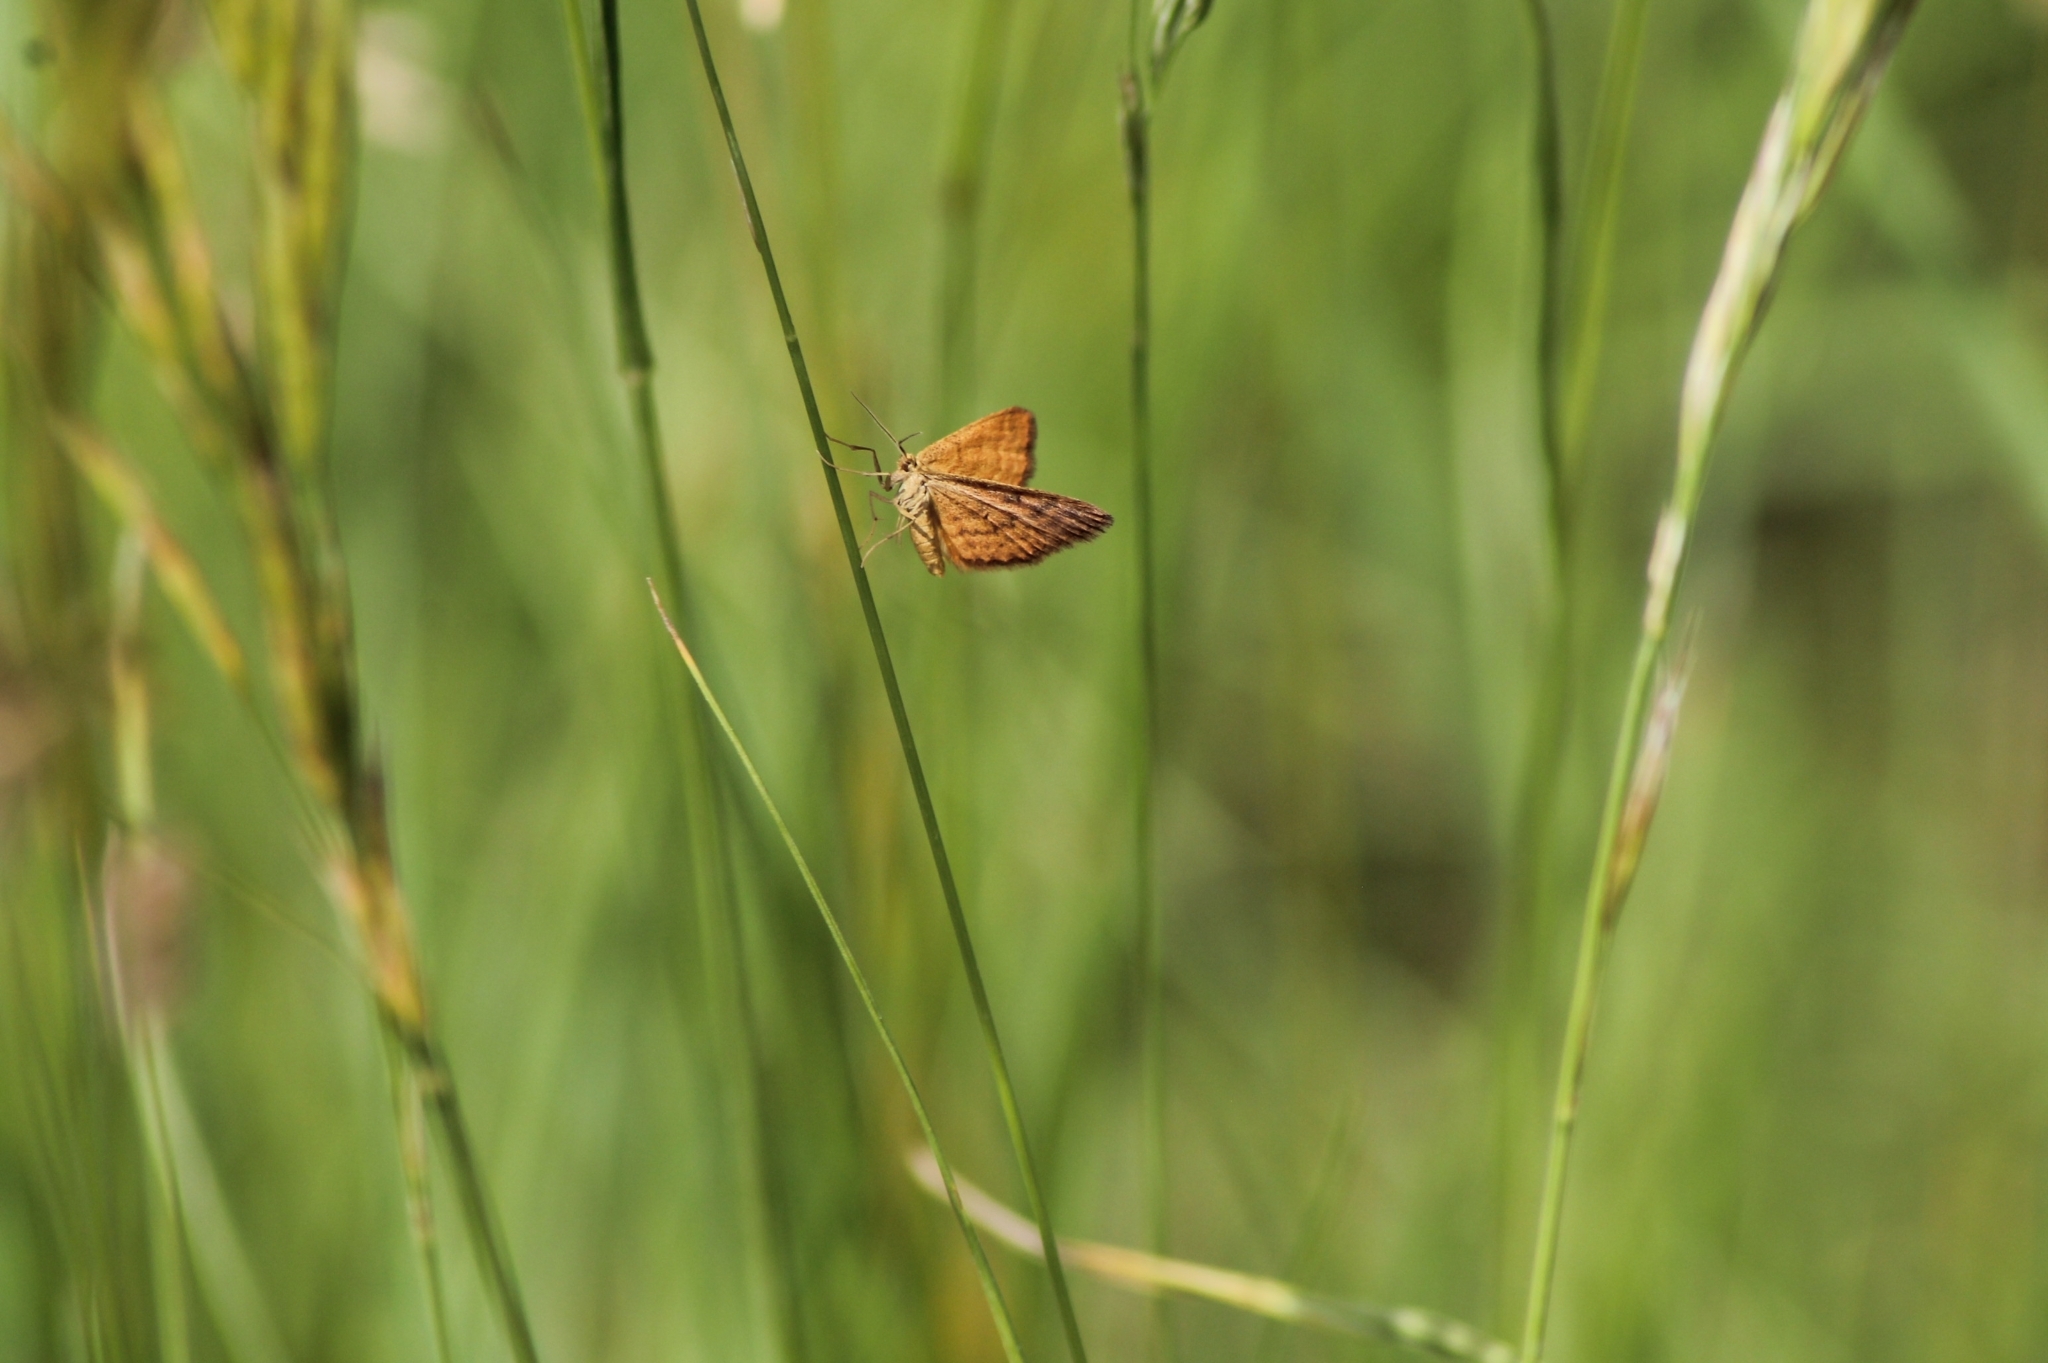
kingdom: Animalia
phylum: Arthropoda
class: Insecta
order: Lepidoptera
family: Geometridae
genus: Idaea
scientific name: Idaea serpentata
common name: Ochraceous wave
